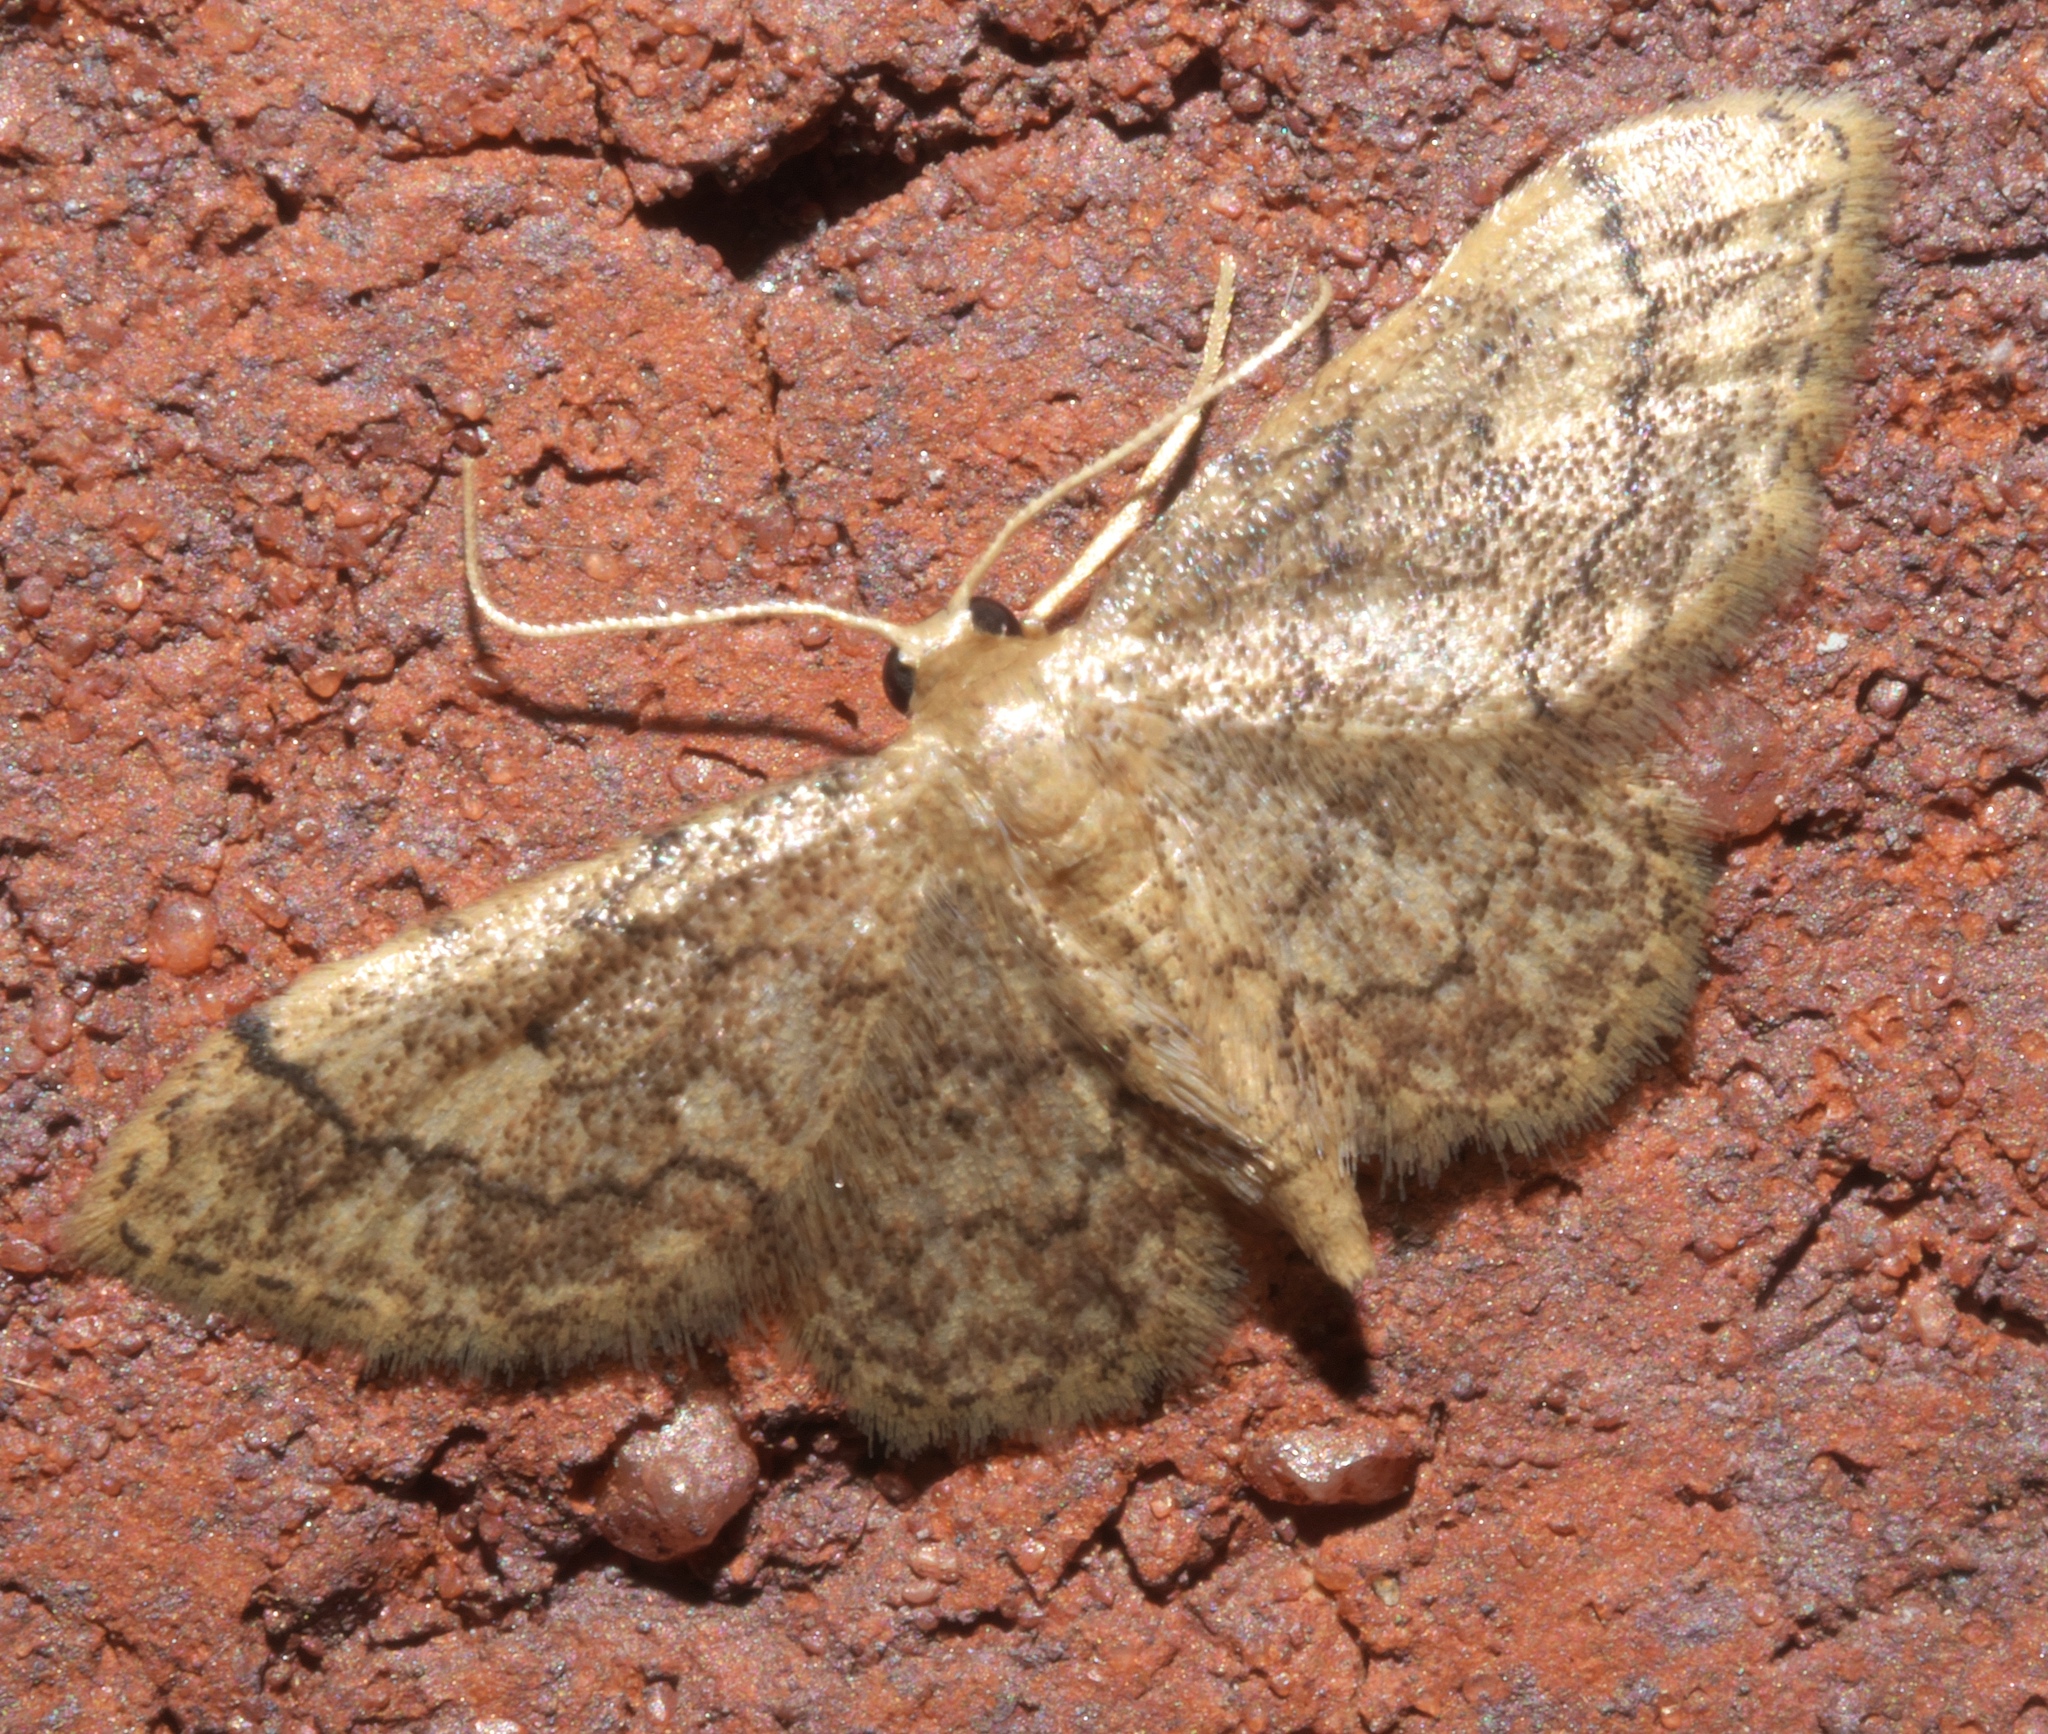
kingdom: Animalia
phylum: Arthropoda
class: Insecta
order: Lepidoptera
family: Geometridae
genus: Idaea
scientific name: Idaea celtima
